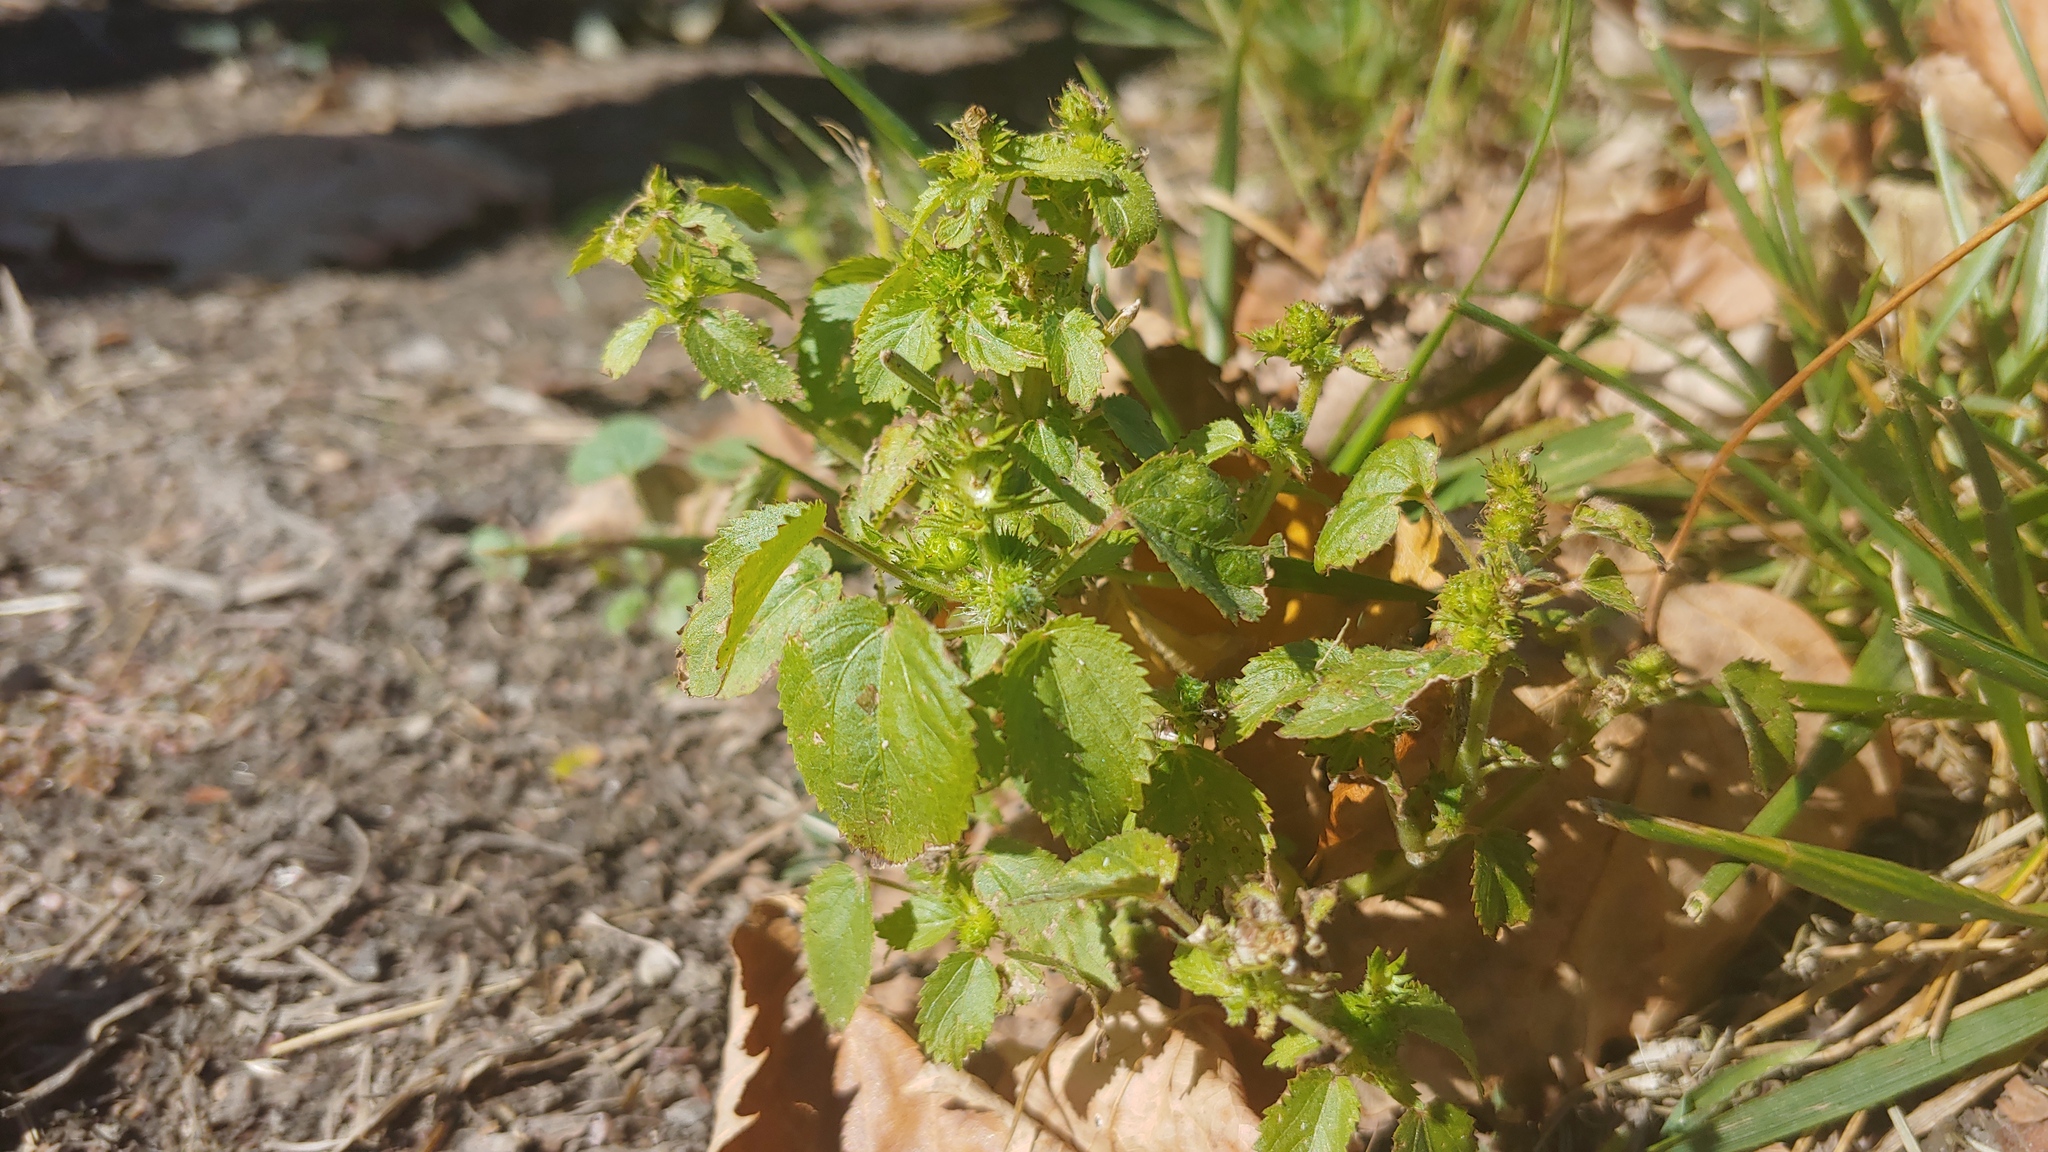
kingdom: Plantae
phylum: Tracheophyta
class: Magnoliopsida
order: Malpighiales
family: Euphorbiaceae
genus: Acalypha
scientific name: Acalypha ostryifolia
